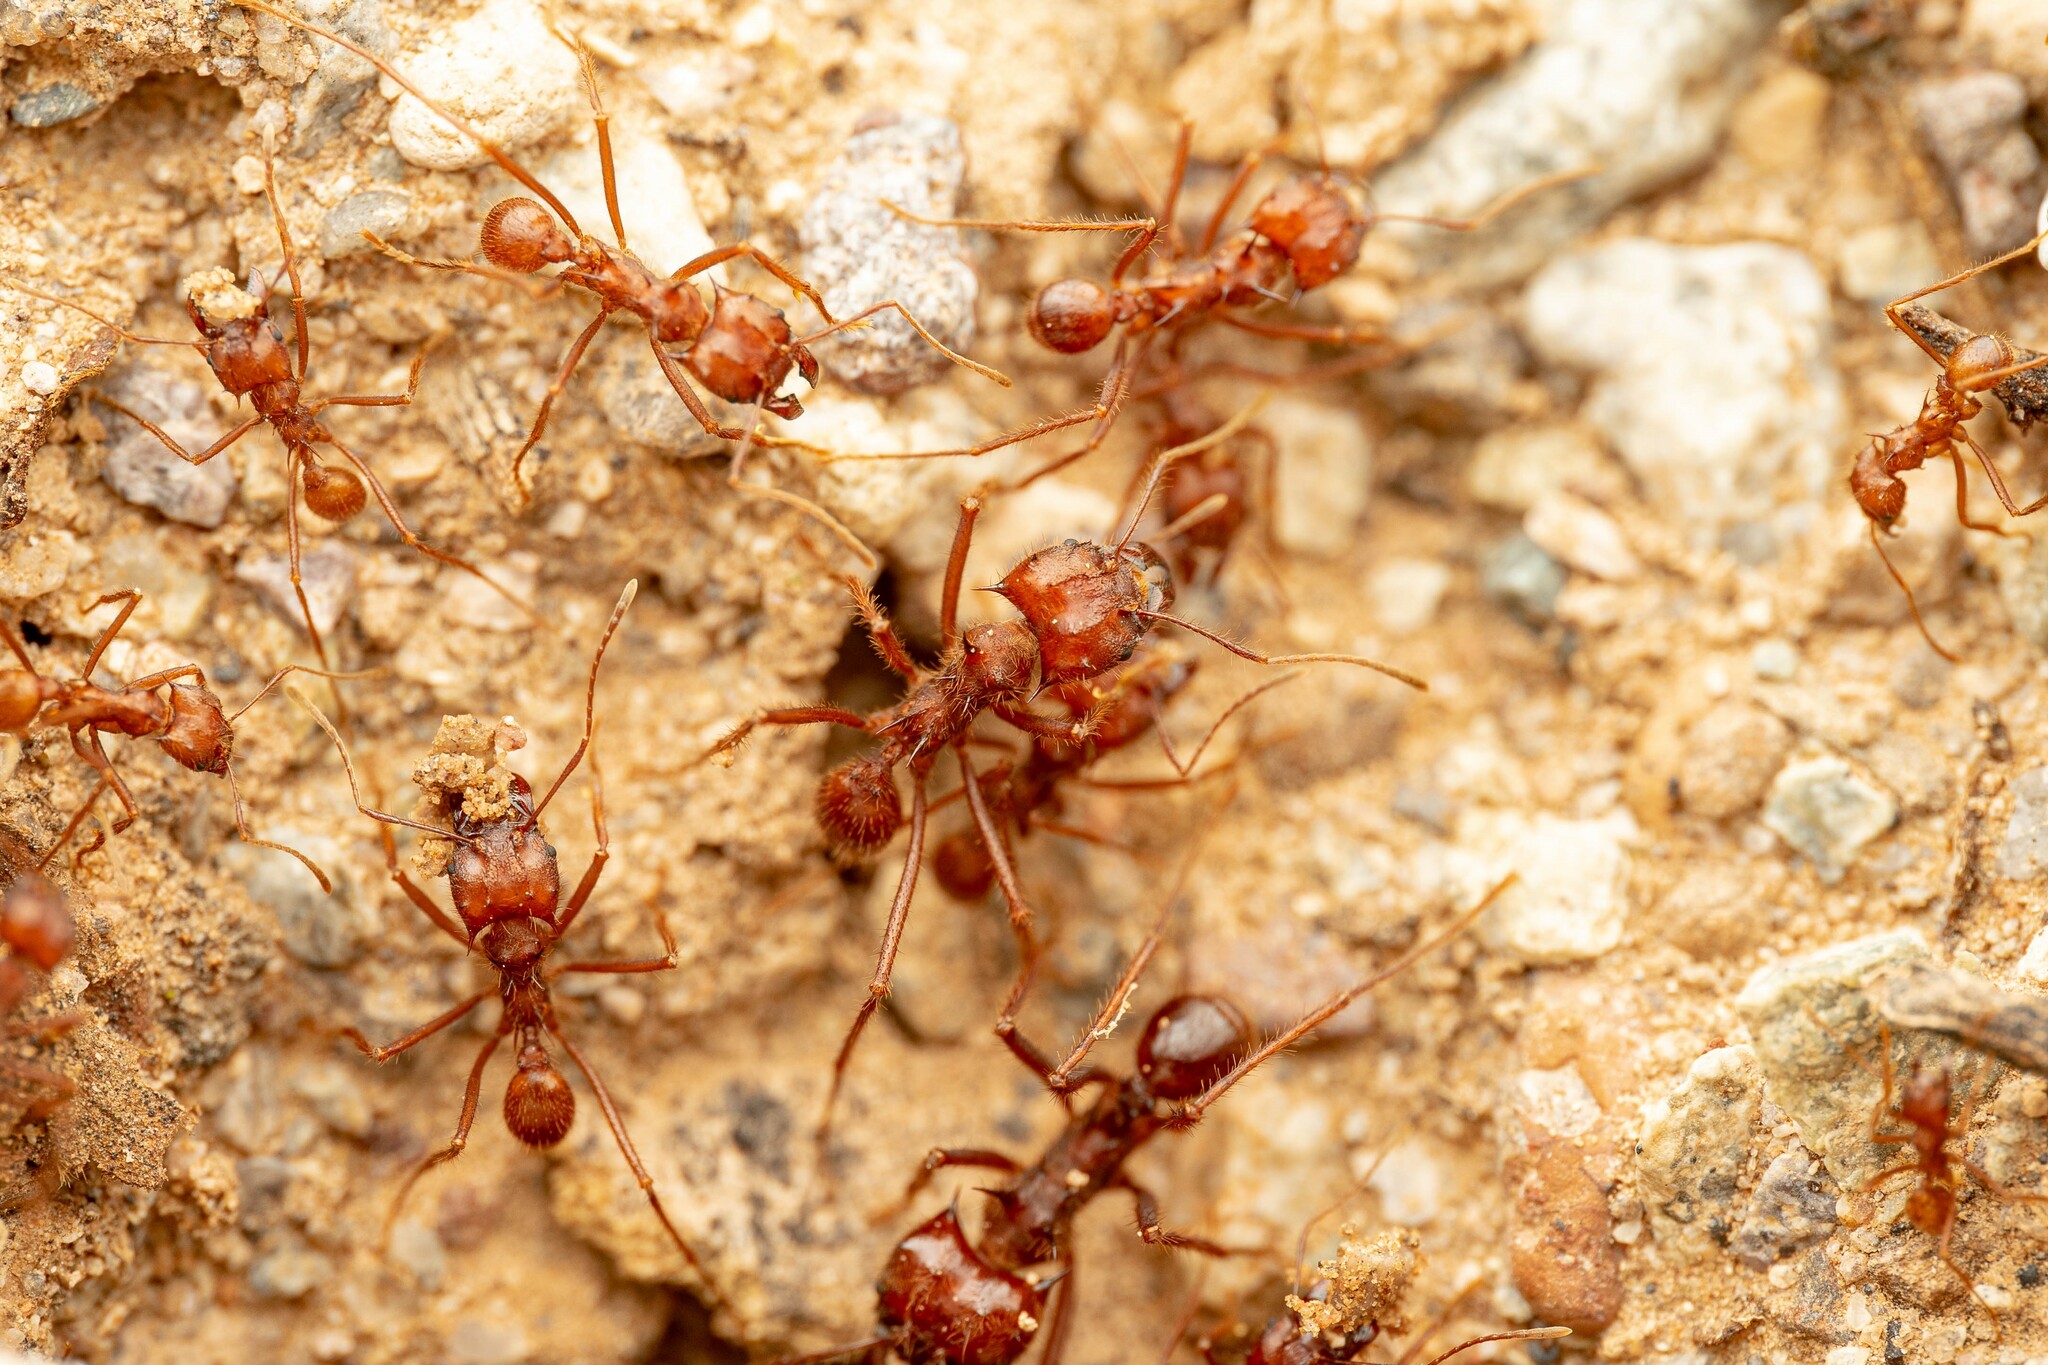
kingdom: Animalia
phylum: Arthropoda
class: Insecta
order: Hymenoptera
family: Formicidae
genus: Atta
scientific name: Atta mexicana
